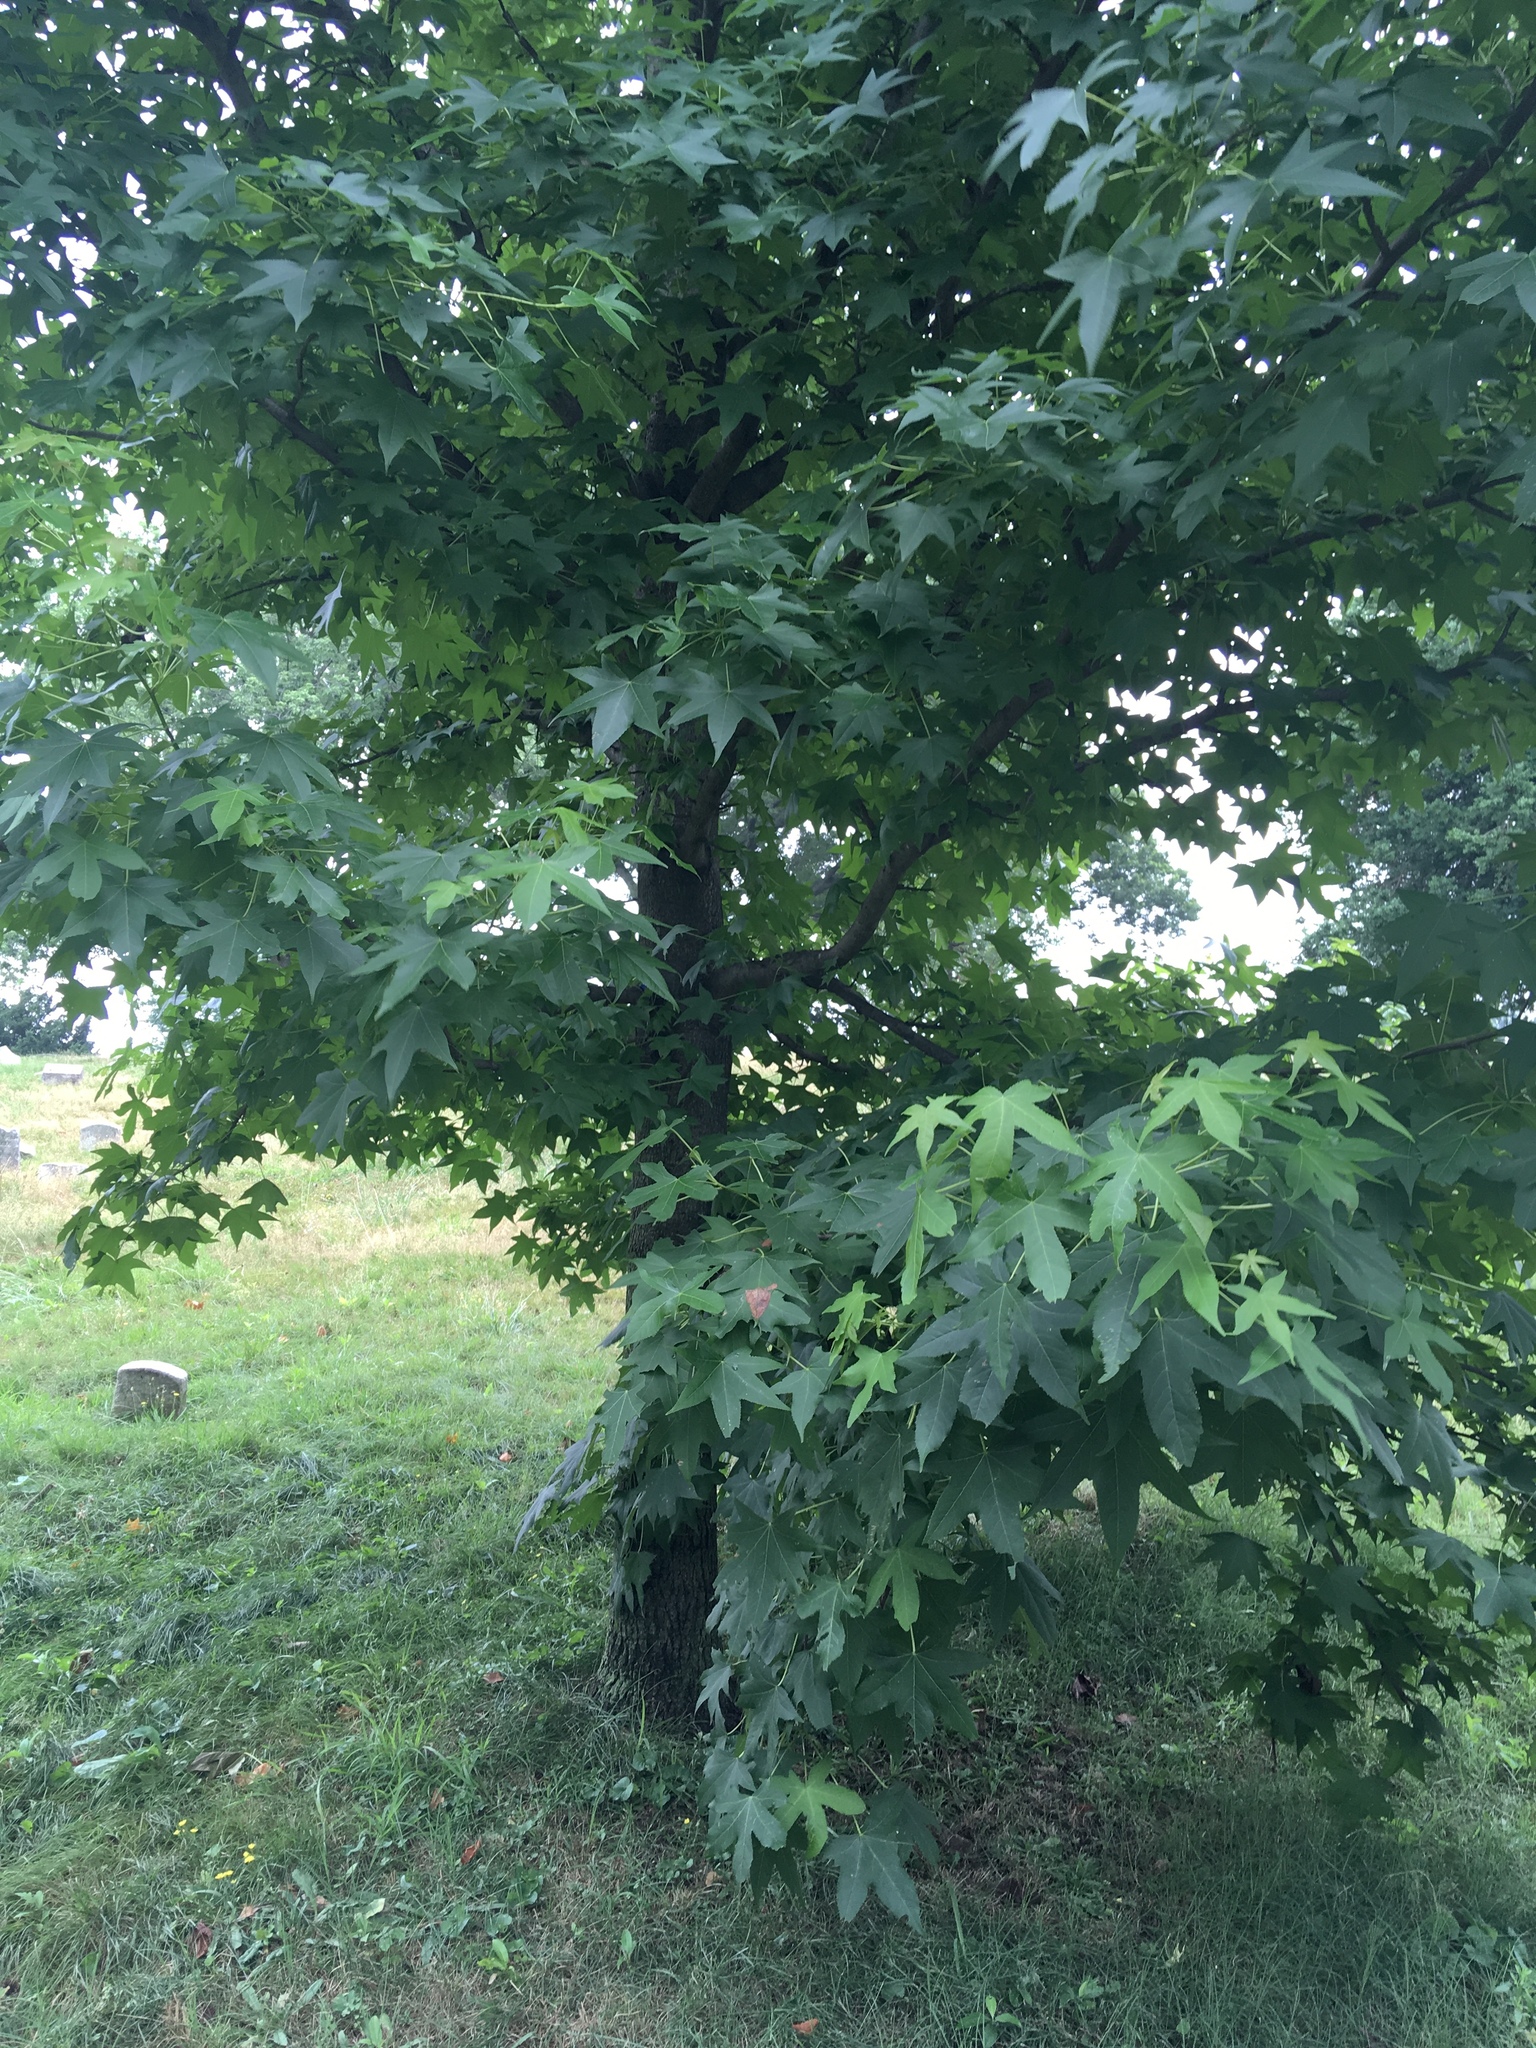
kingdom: Plantae
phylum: Tracheophyta
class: Magnoliopsida
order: Saxifragales
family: Altingiaceae
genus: Liquidambar
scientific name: Liquidambar styraciflua
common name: Sweet gum
